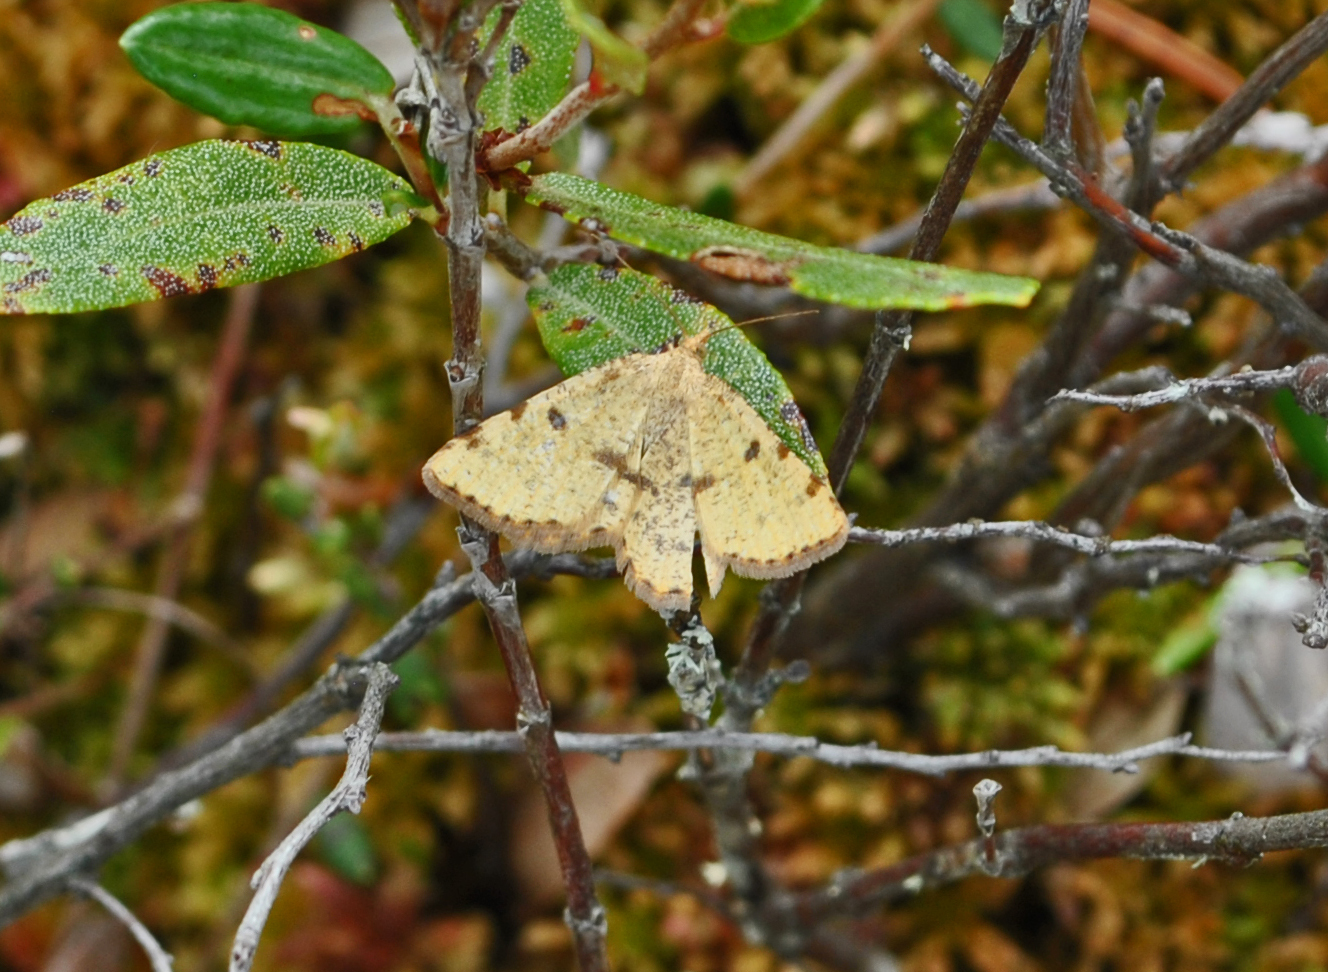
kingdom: Animalia
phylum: Arthropoda
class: Insecta
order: Lepidoptera
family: Geometridae
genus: Macaria
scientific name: Macaria sulphurea
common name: Sulphur angle
